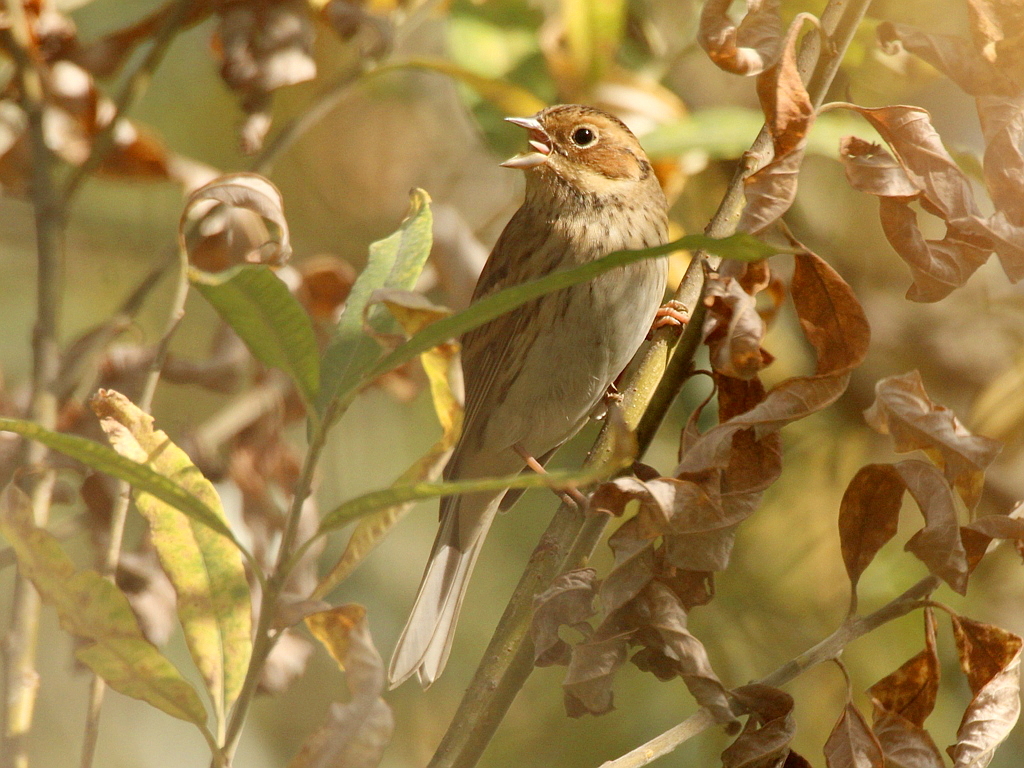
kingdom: Animalia
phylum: Chordata
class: Aves
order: Passeriformes
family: Emberizidae
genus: Emberiza
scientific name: Emberiza pusilla
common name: Little bunting
